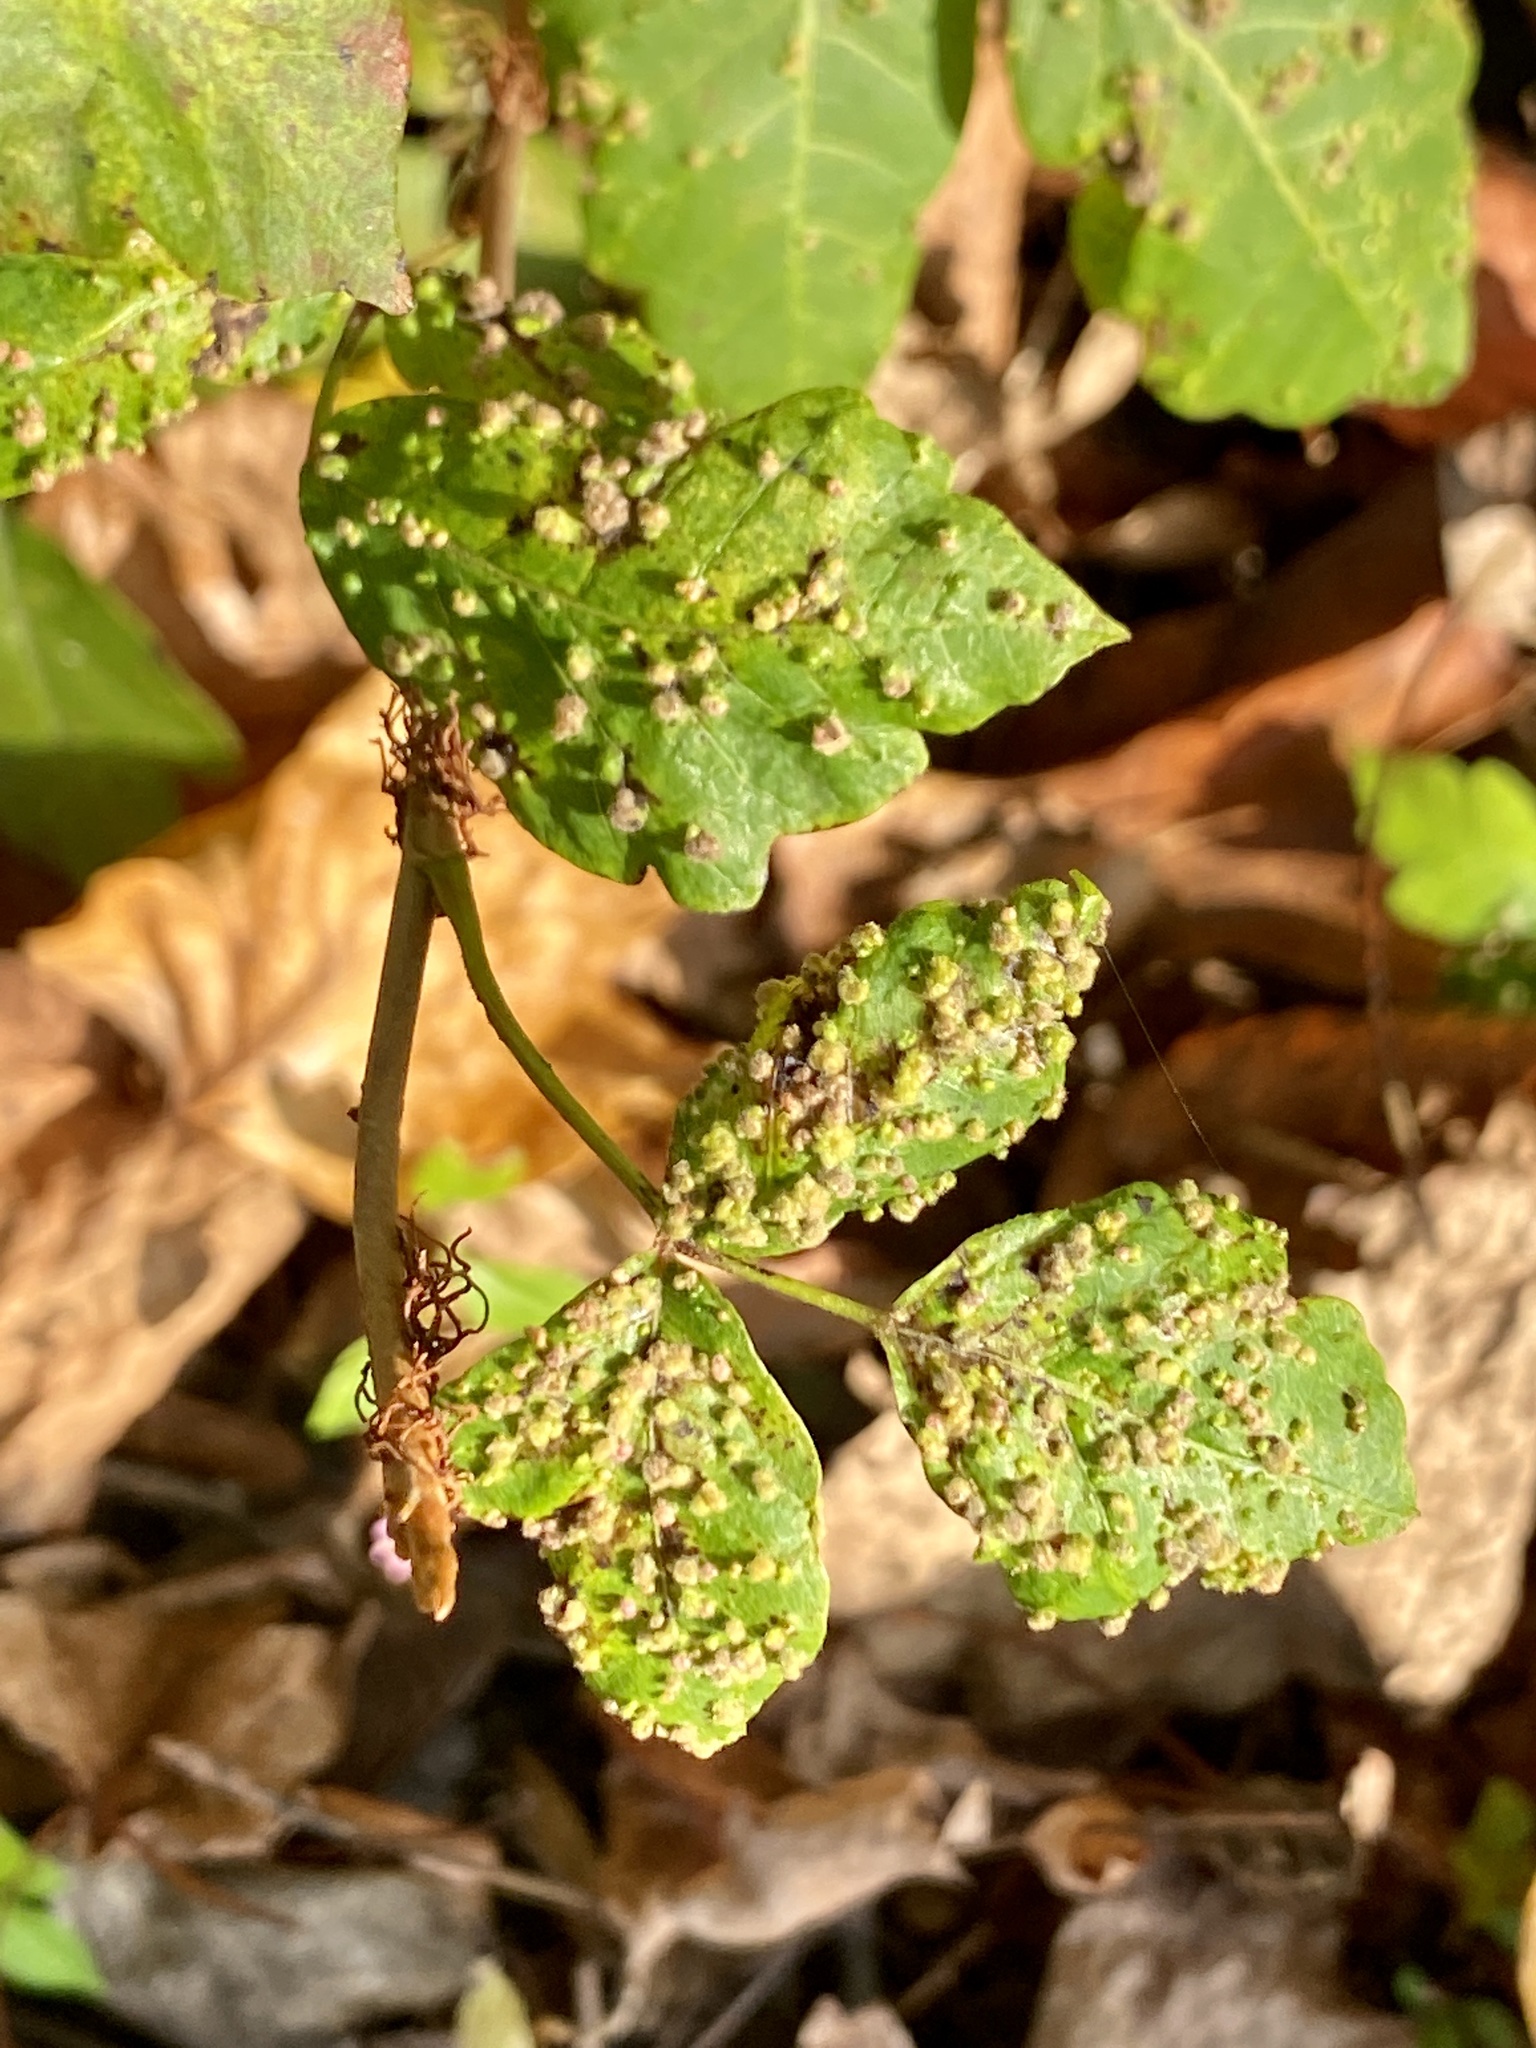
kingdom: Animalia
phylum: Arthropoda
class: Arachnida
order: Trombidiformes
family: Eriophyidae
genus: Aculops
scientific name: Aculops
